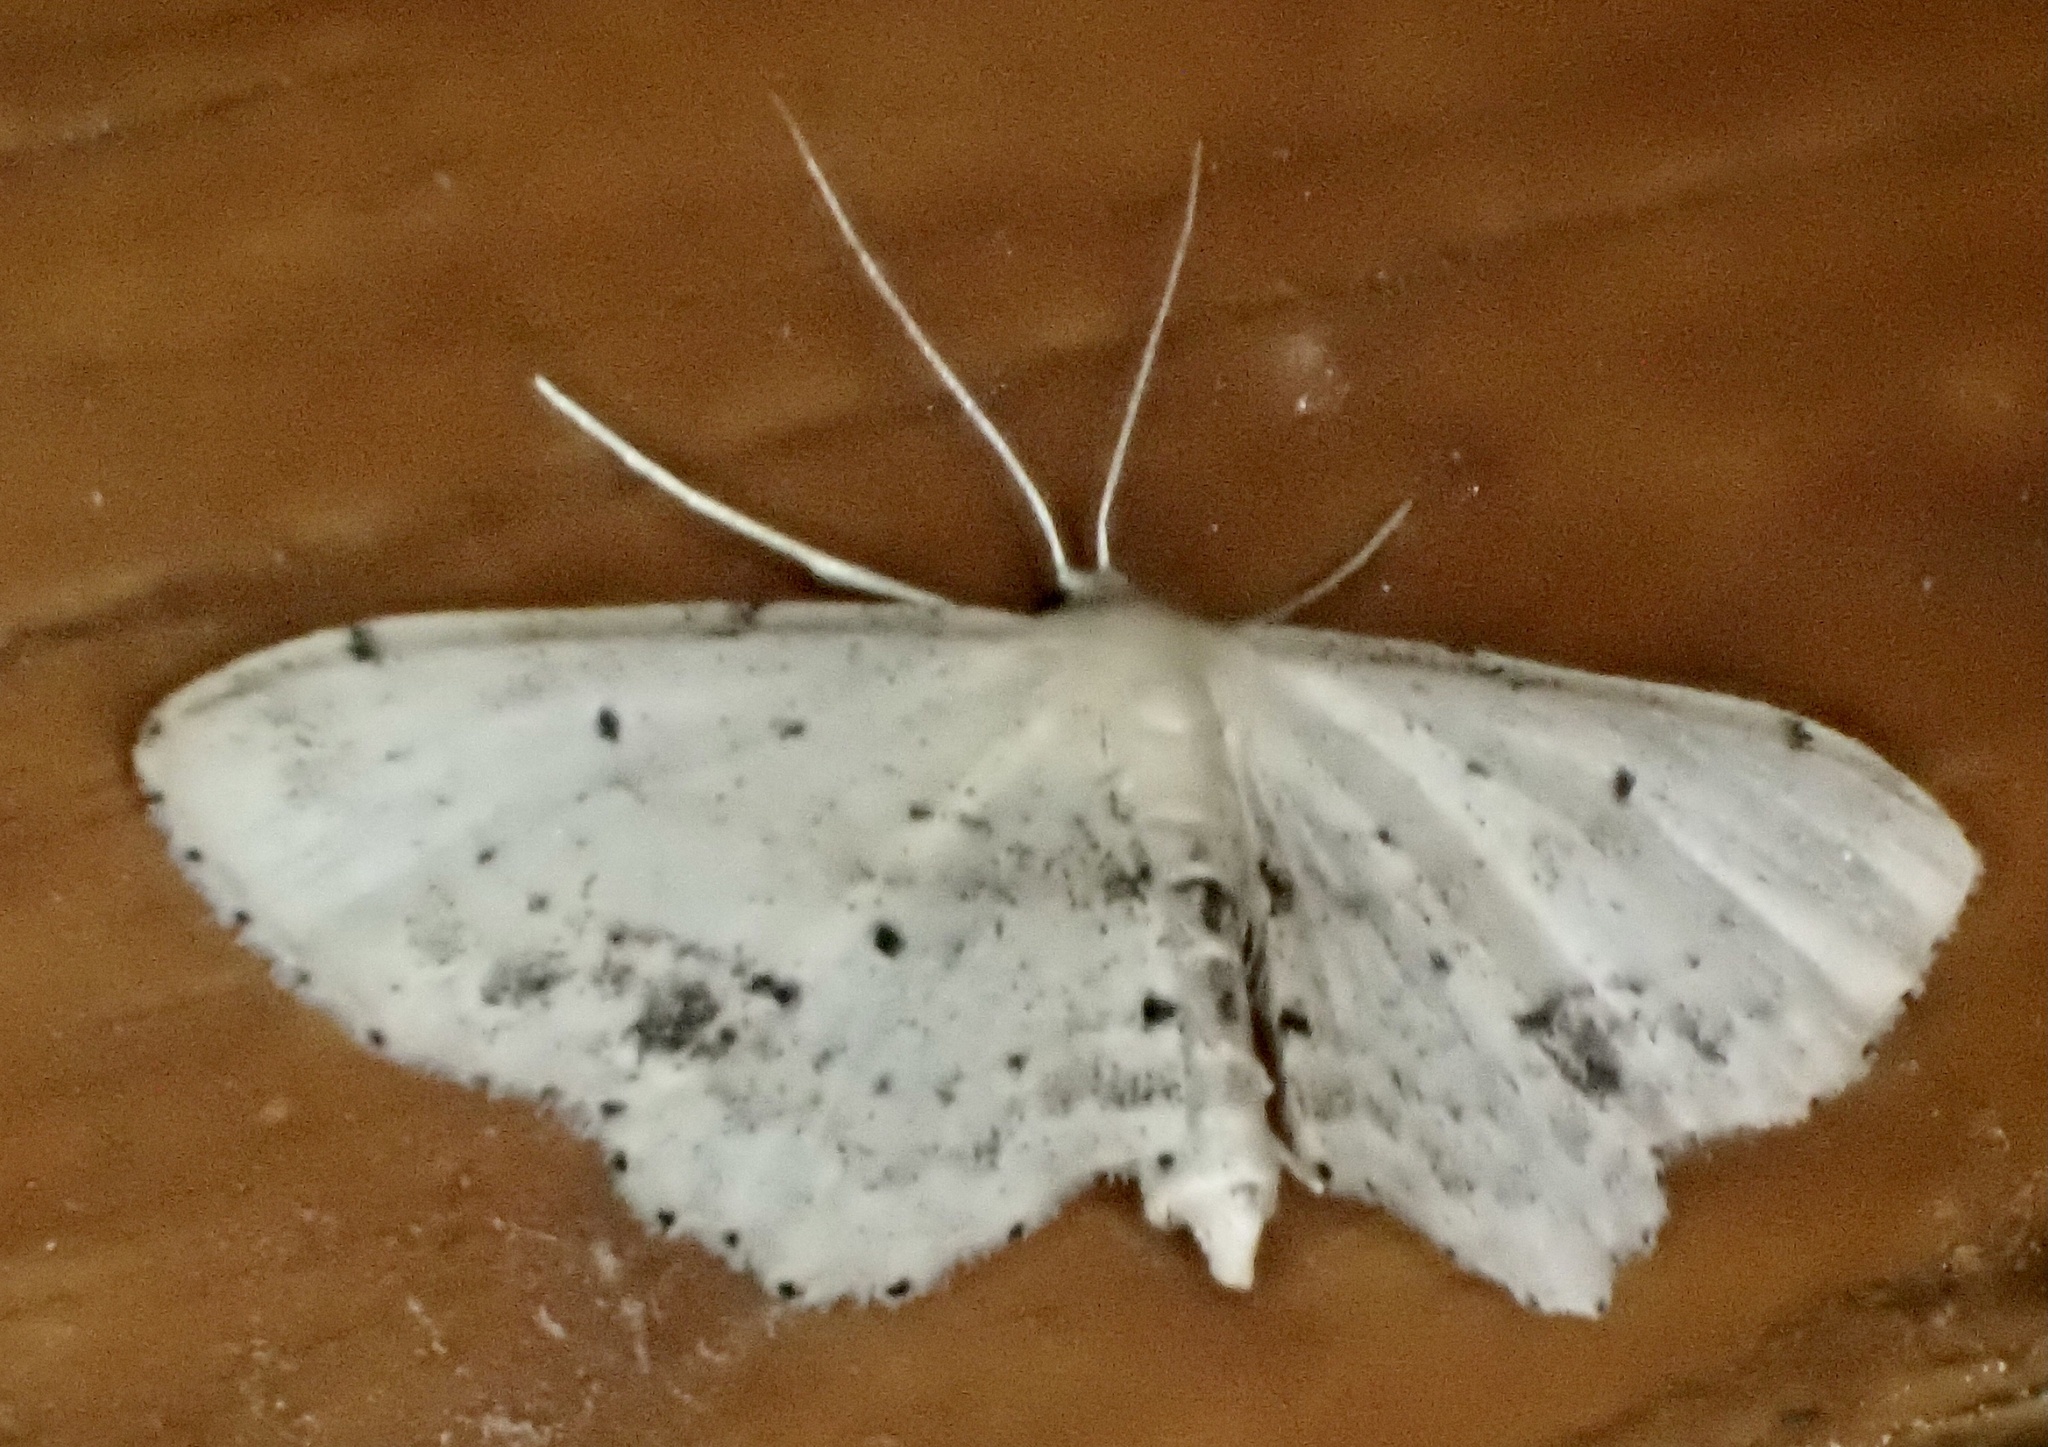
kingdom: Animalia
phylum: Arthropoda
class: Insecta
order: Lepidoptera
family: Geometridae
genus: Idaea
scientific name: Idaea dimidiata
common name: Single-dotted wave
